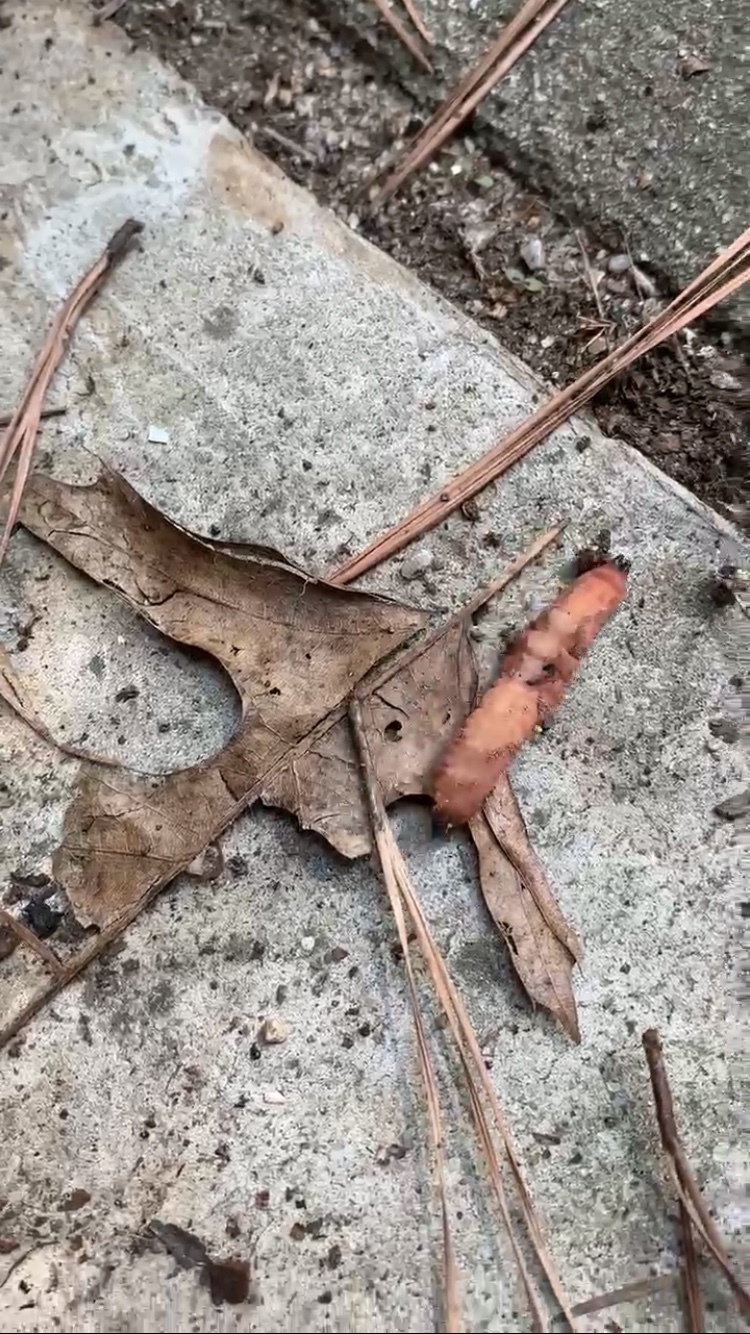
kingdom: Animalia
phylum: Arthropoda
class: Insecta
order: Lepidoptera
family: Notodontidae
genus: Heterocampa
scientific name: Heterocampa
